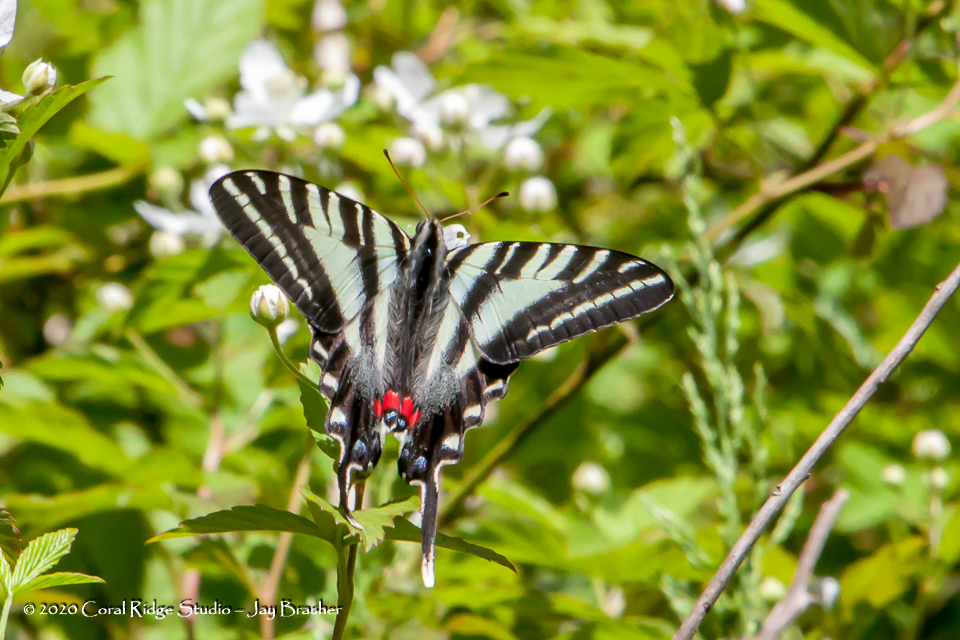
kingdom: Animalia
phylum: Arthropoda
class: Insecta
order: Lepidoptera
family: Papilionidae
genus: Protographium
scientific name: Protographium marcellus
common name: Zebra swallowtail
